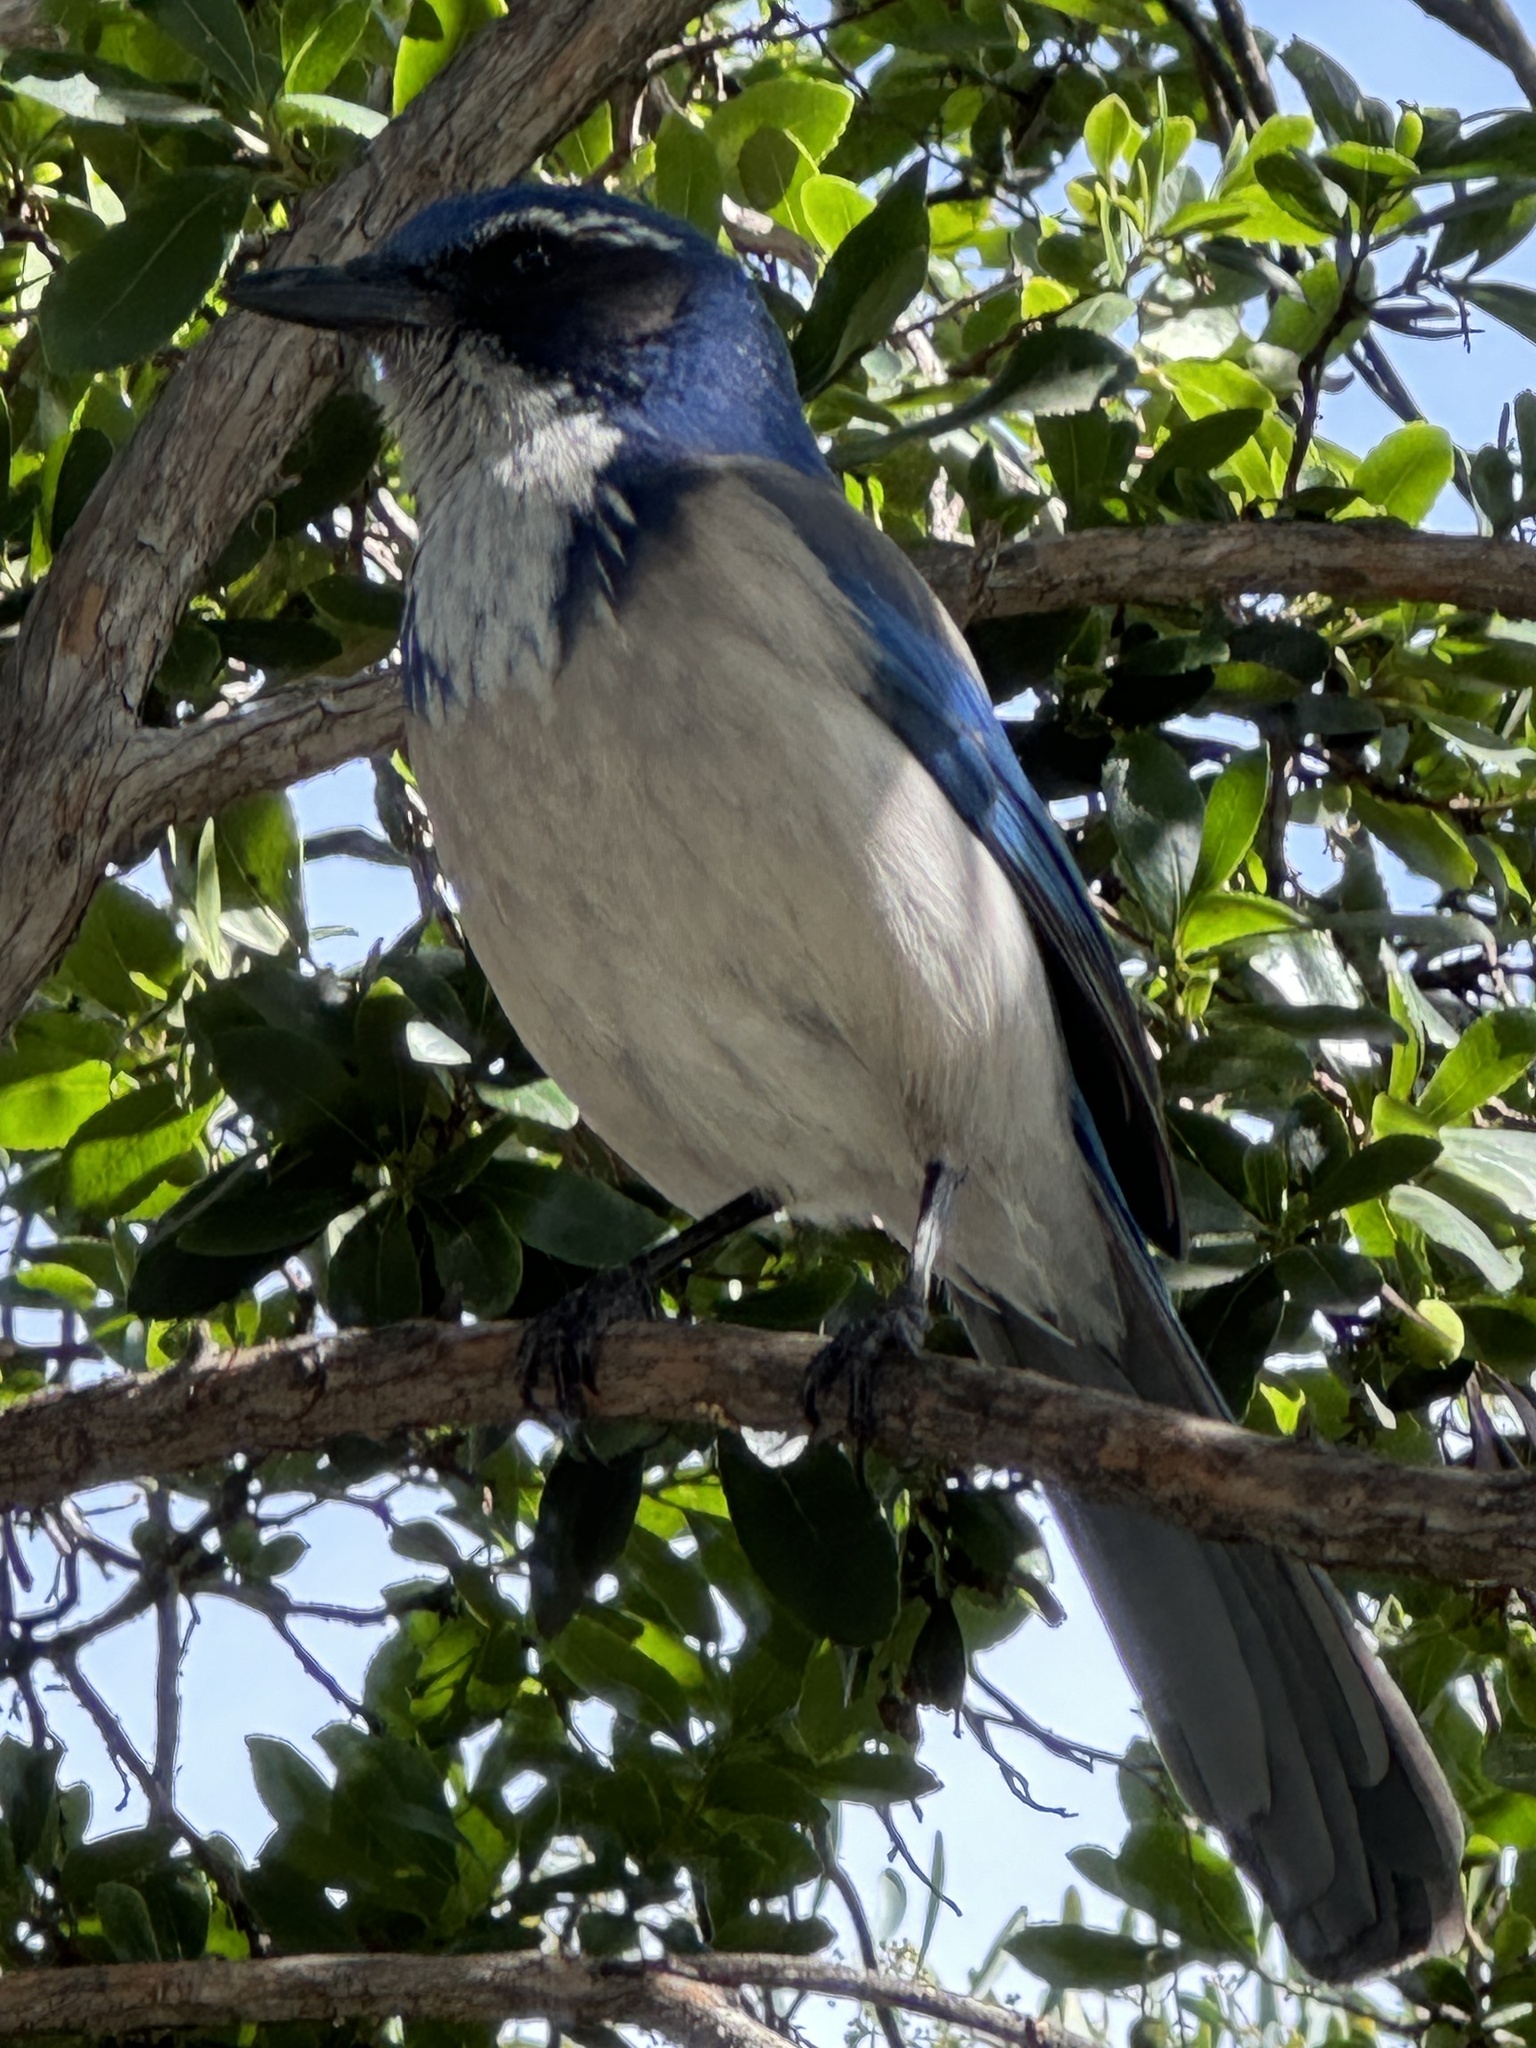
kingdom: Animalia
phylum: Chordata
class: Aves
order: Passeriformes
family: Corvidae
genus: Aphelocoma
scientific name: Aphelocoma californica
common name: California scrub-jay
